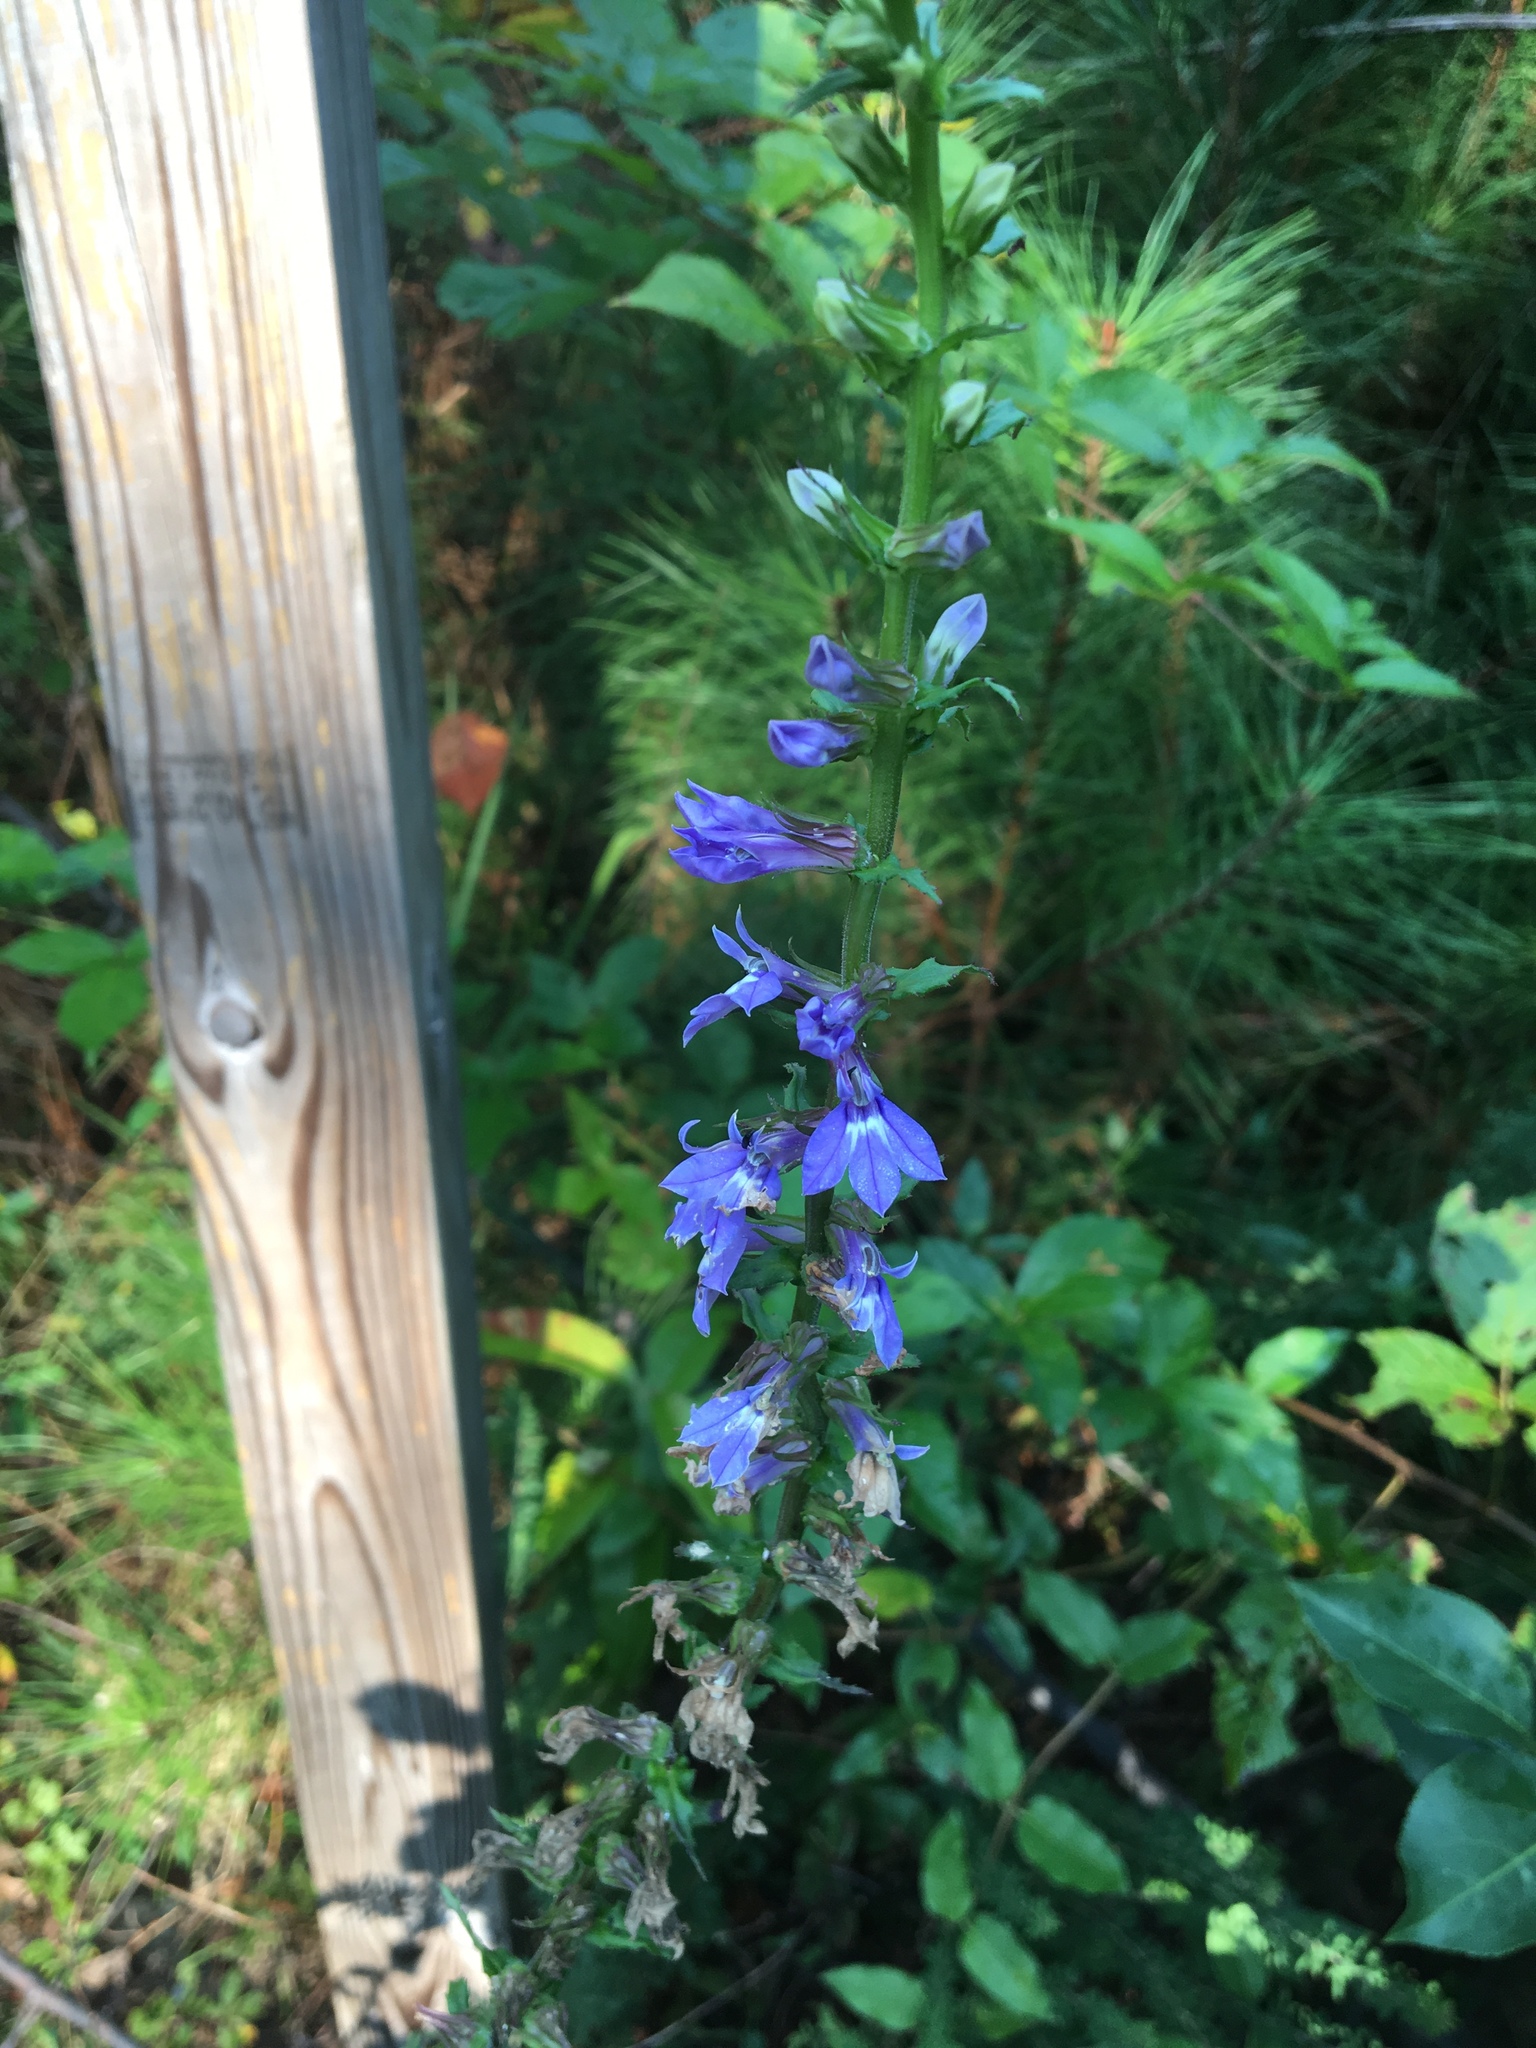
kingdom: Plantae
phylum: Tracheophyta
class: Magnoliopsida
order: Asterales
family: Campanulaceae
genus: Lobelia
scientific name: Lobelia puberula
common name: Purple dewdrop
